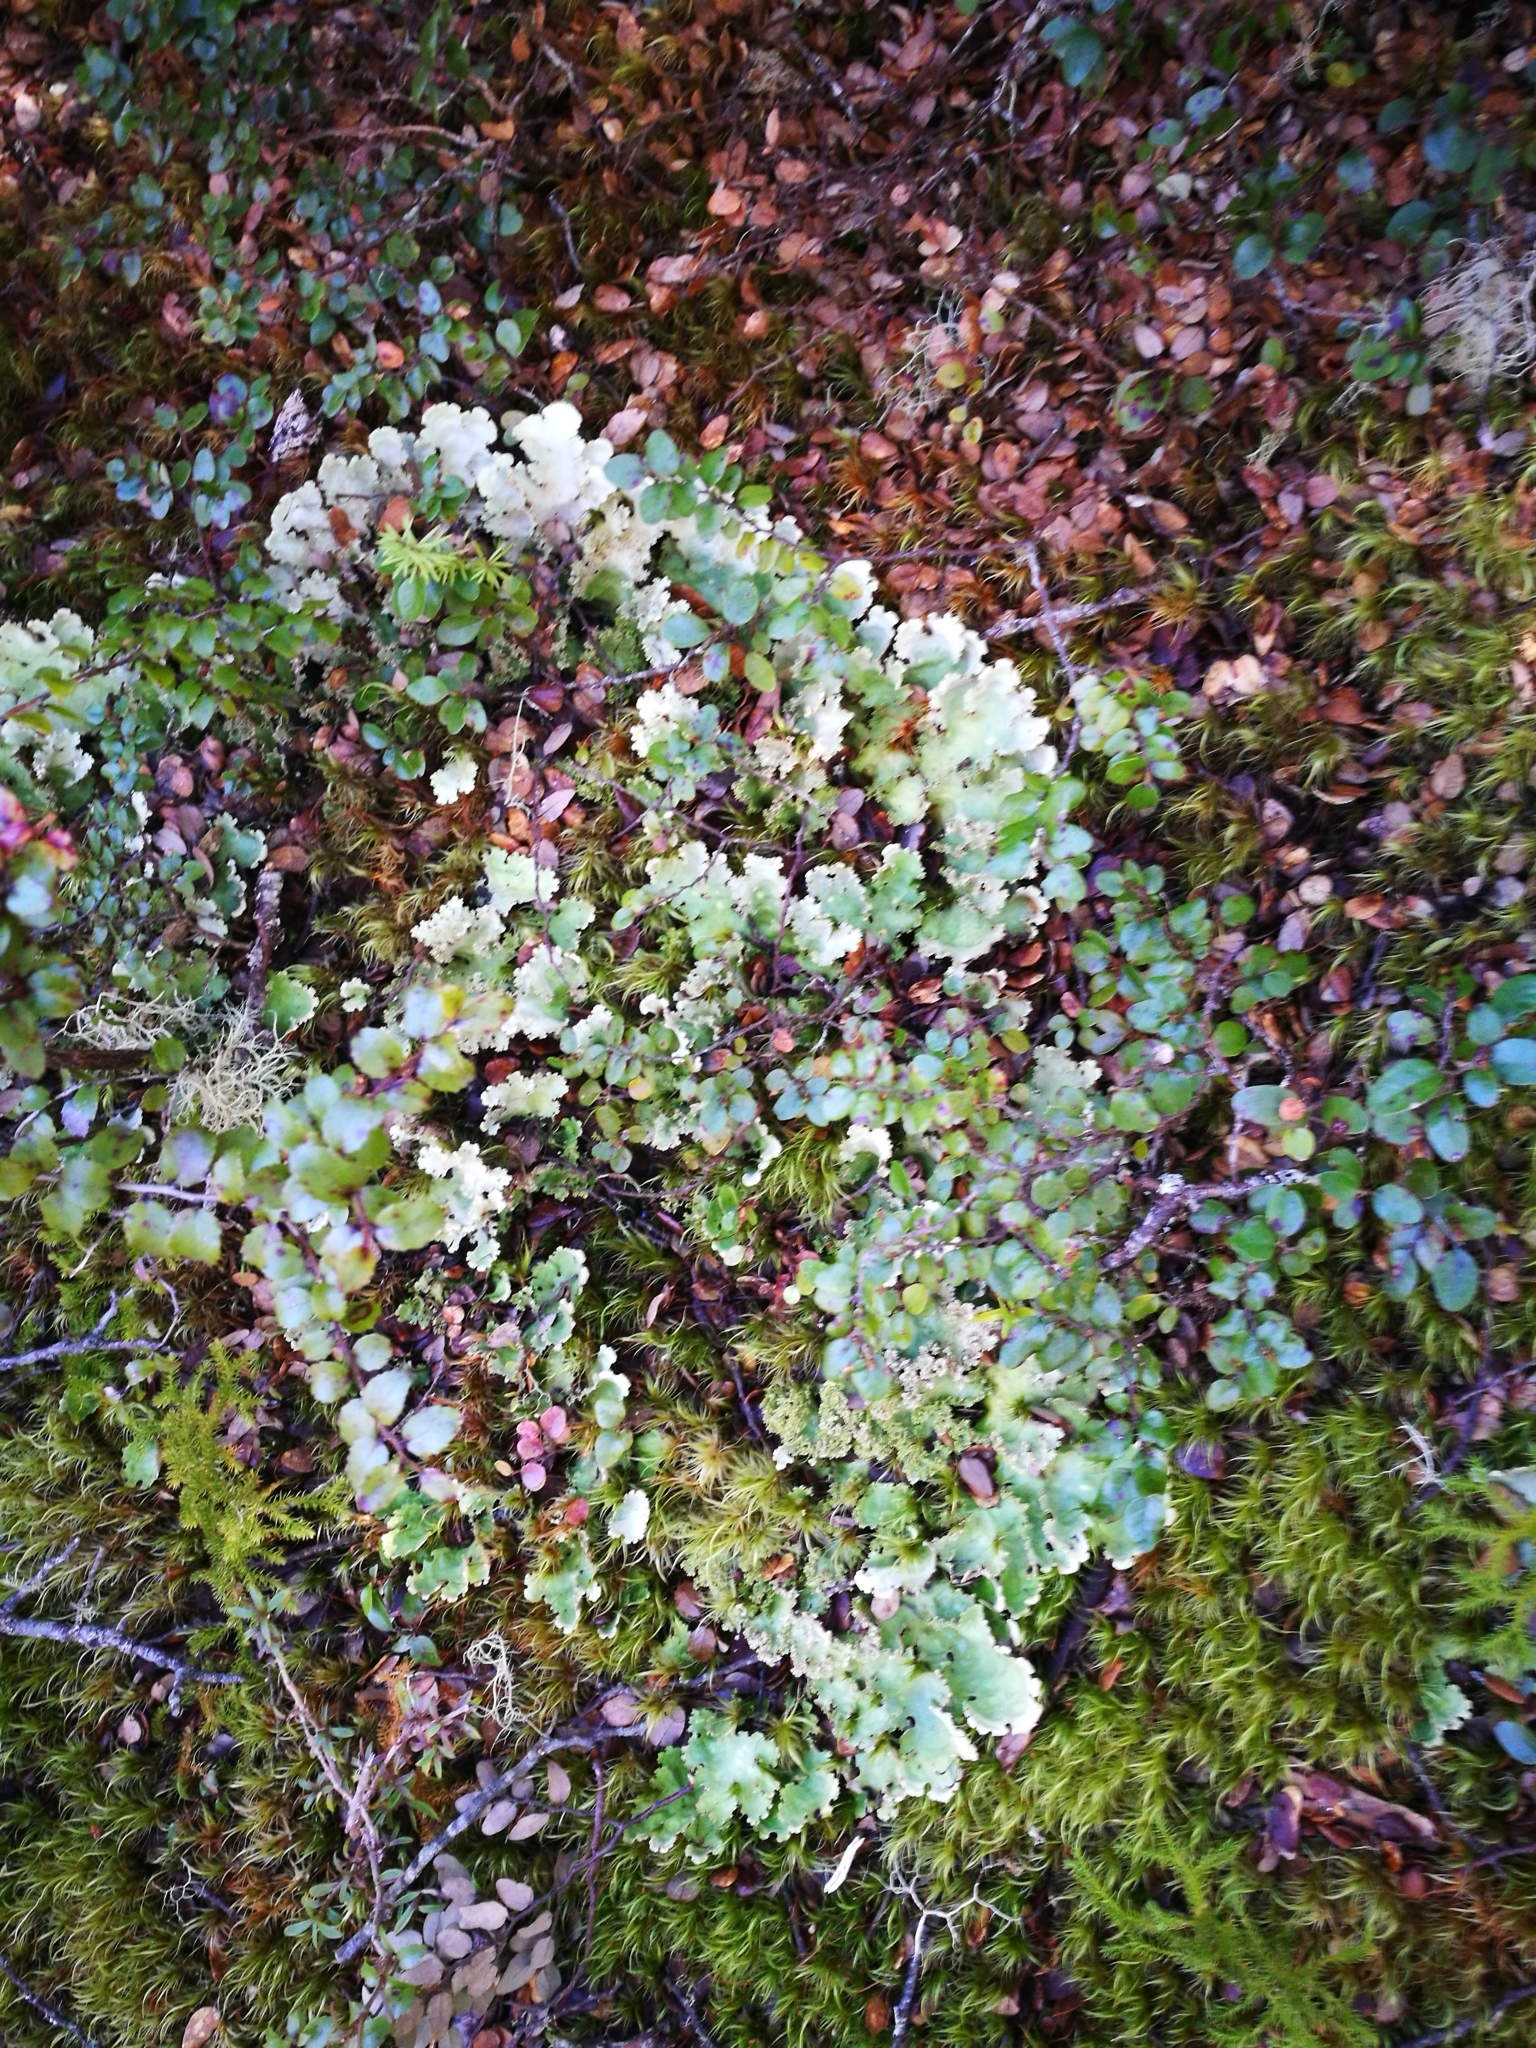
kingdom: Plantae
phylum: Tracheophyta
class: Magnoliopsida
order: Fagales
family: Nothofagaceae
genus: Nothofagus
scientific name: Nothofagus cliffortioides
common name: Mountain beech
